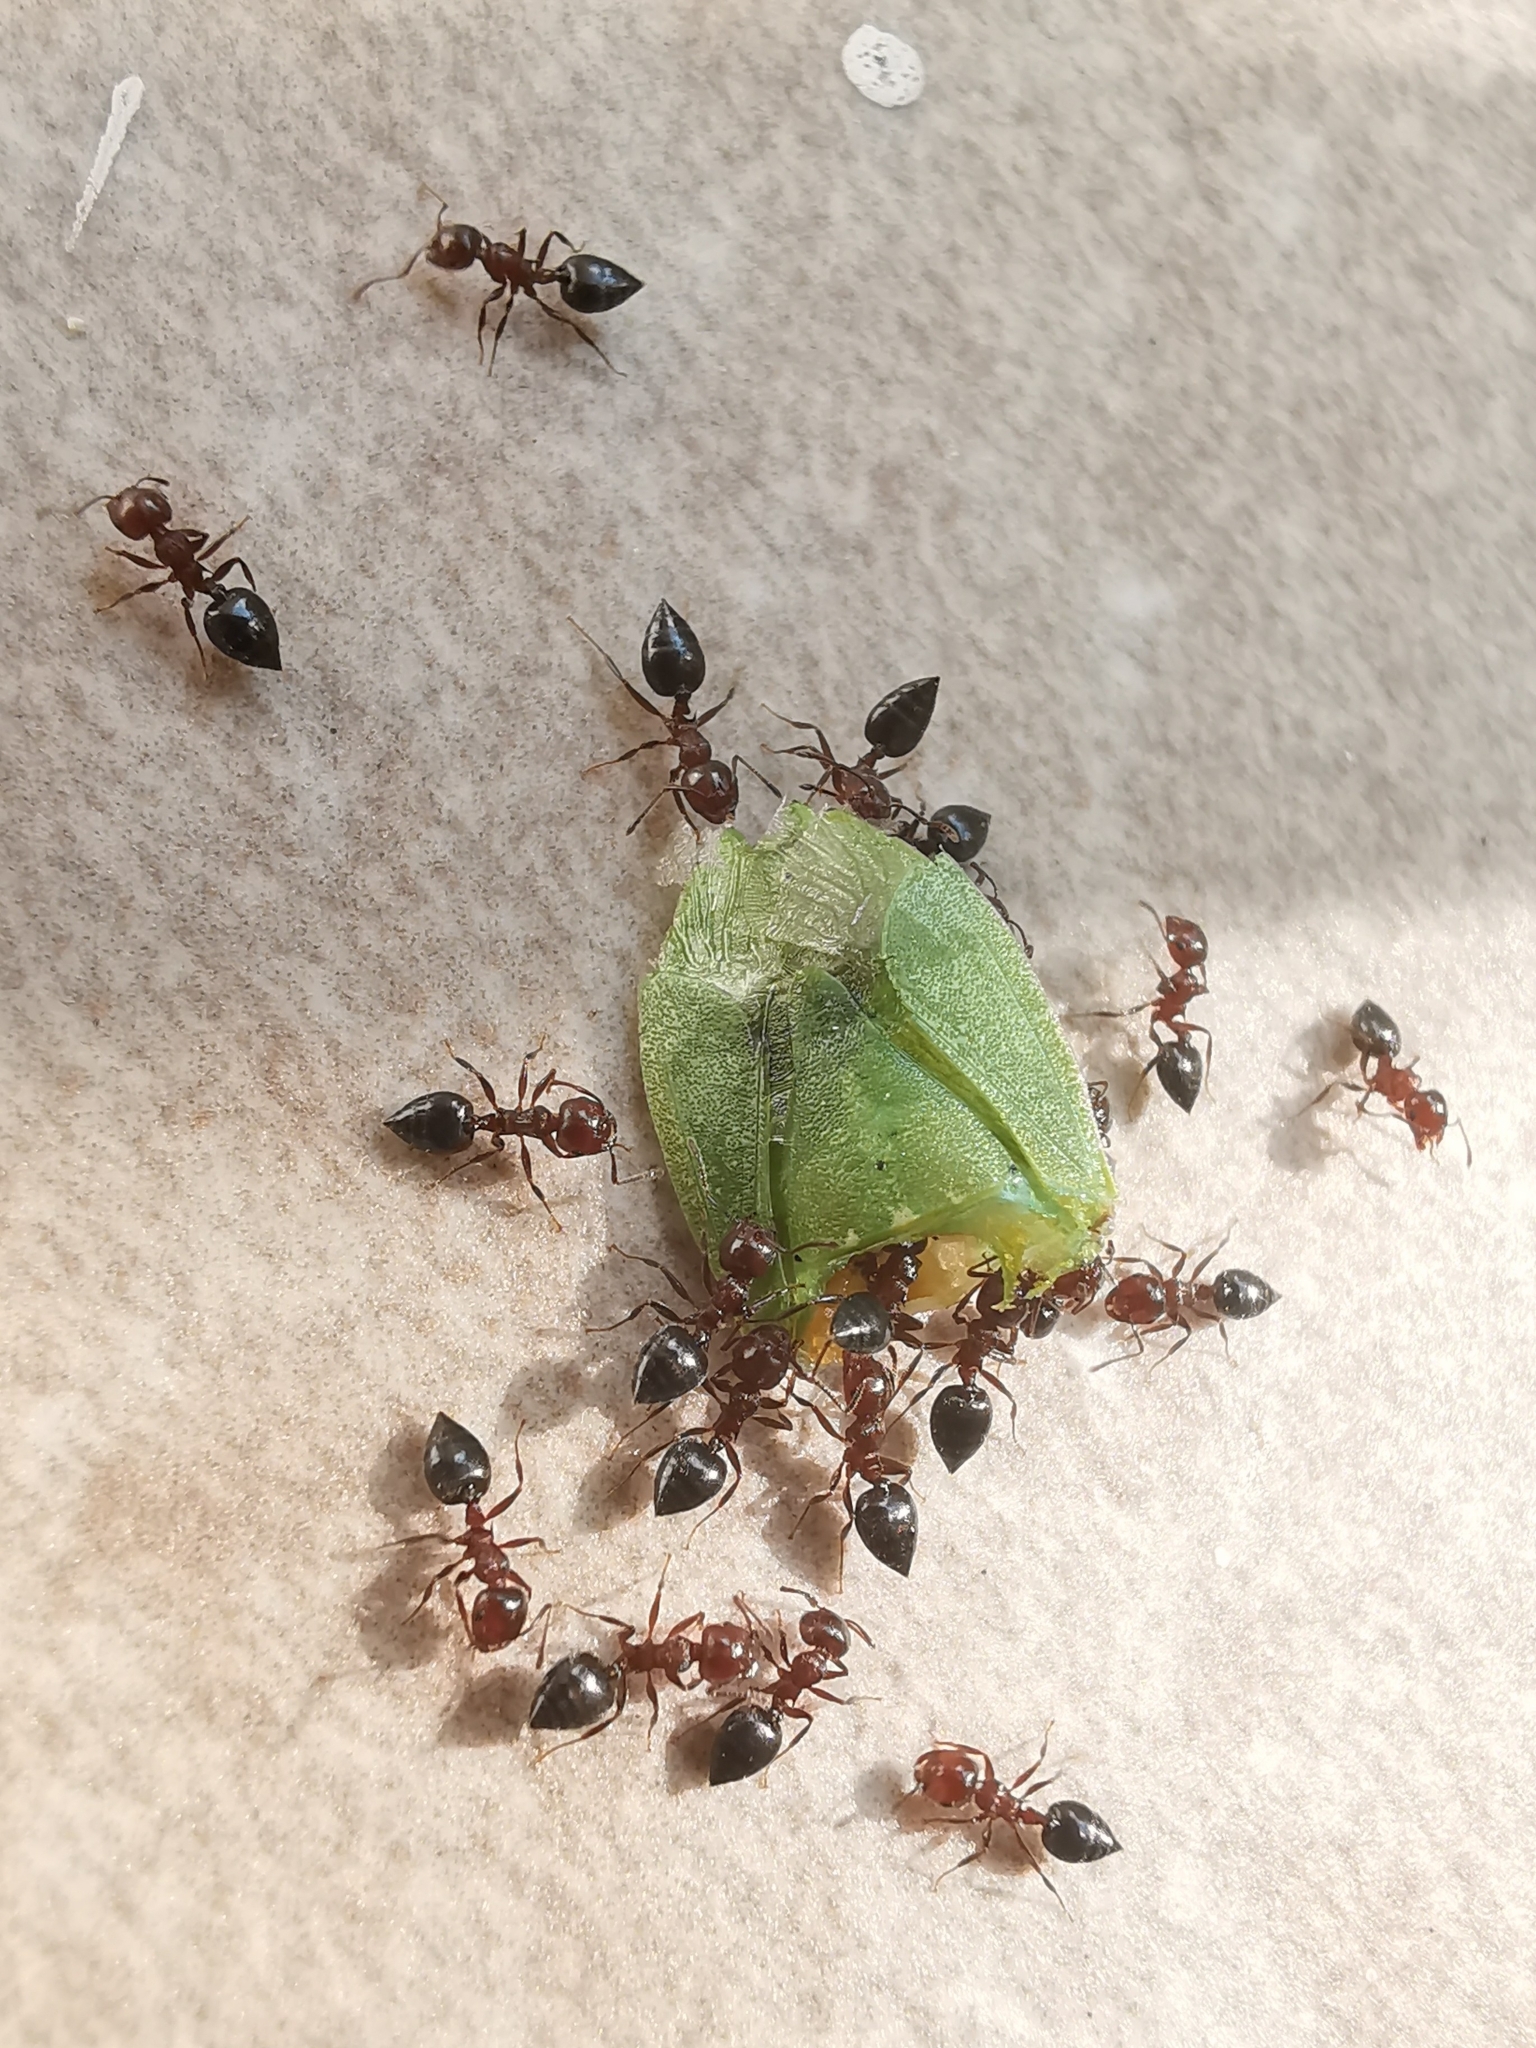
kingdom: Animalia
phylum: Arthropoda
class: Insecta
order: Hymenoptera
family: Formicidae
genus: Crematogaster
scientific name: Crematogaster schmidti
